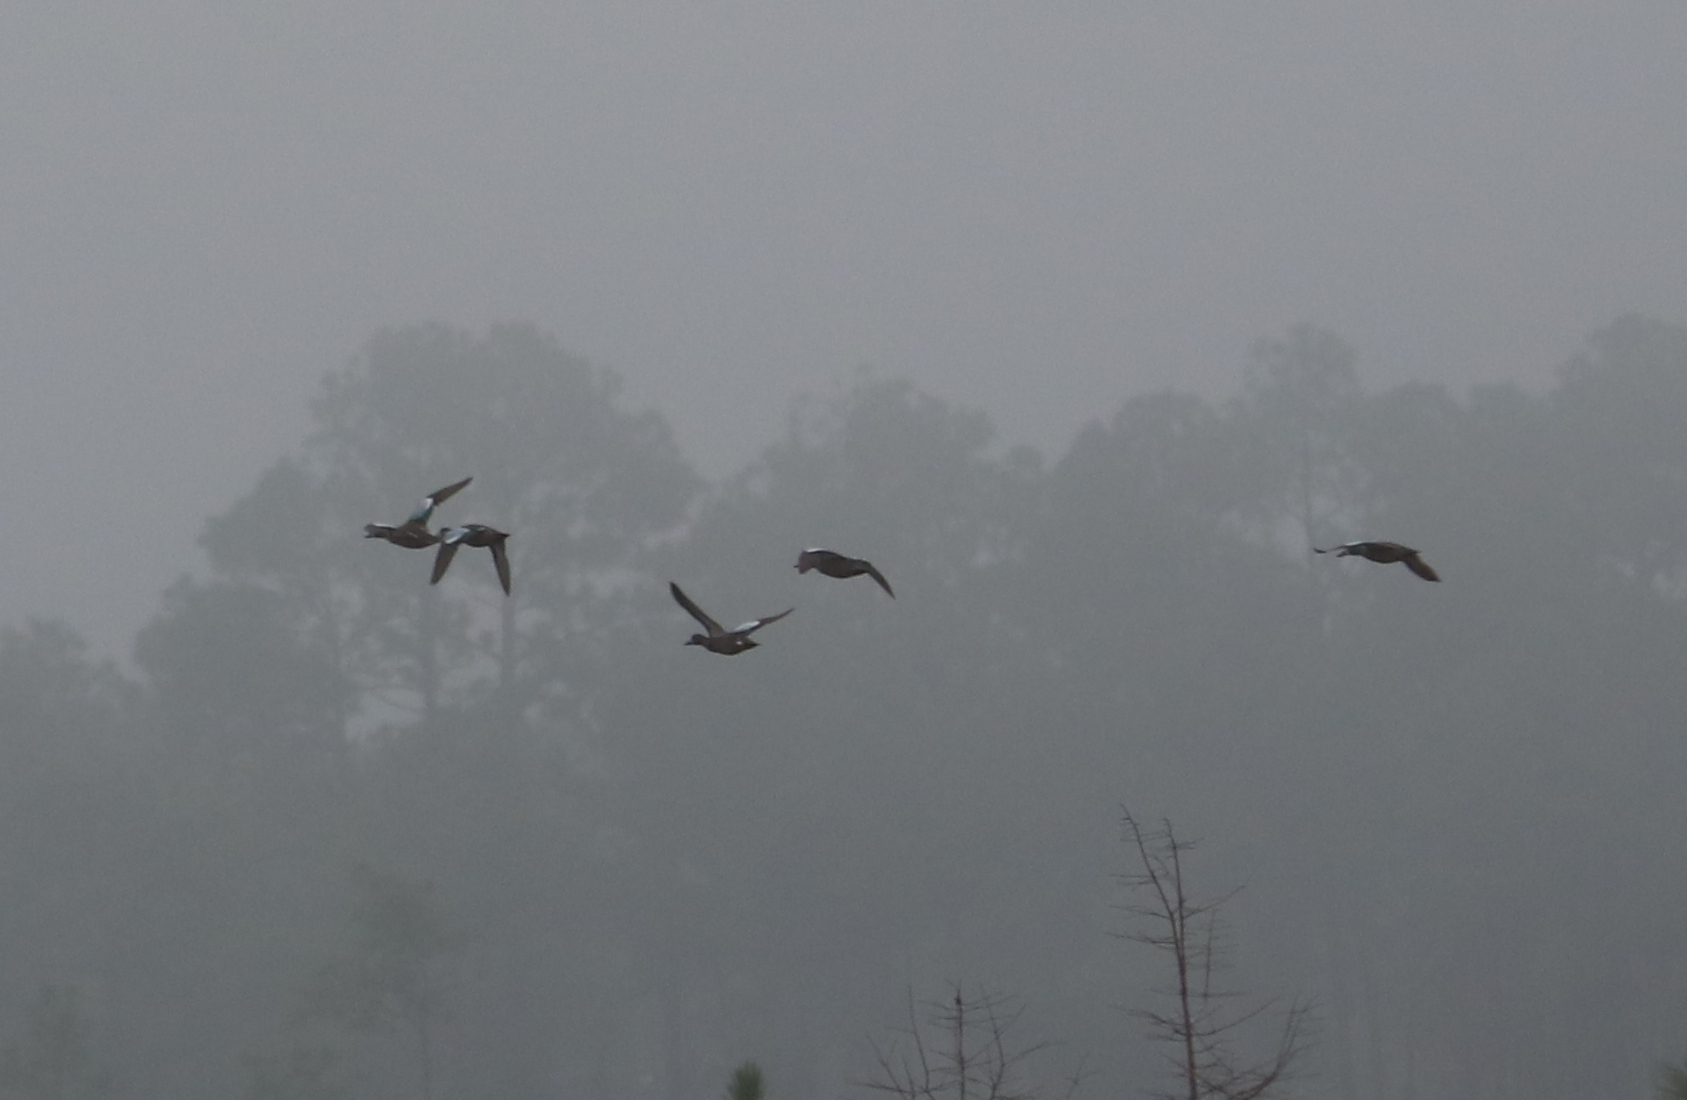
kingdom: Animalia
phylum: Chordata
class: Aves
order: Anseriformes
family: Anatidae
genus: Spatula
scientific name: Spatula discors
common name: Blue-winged teal
